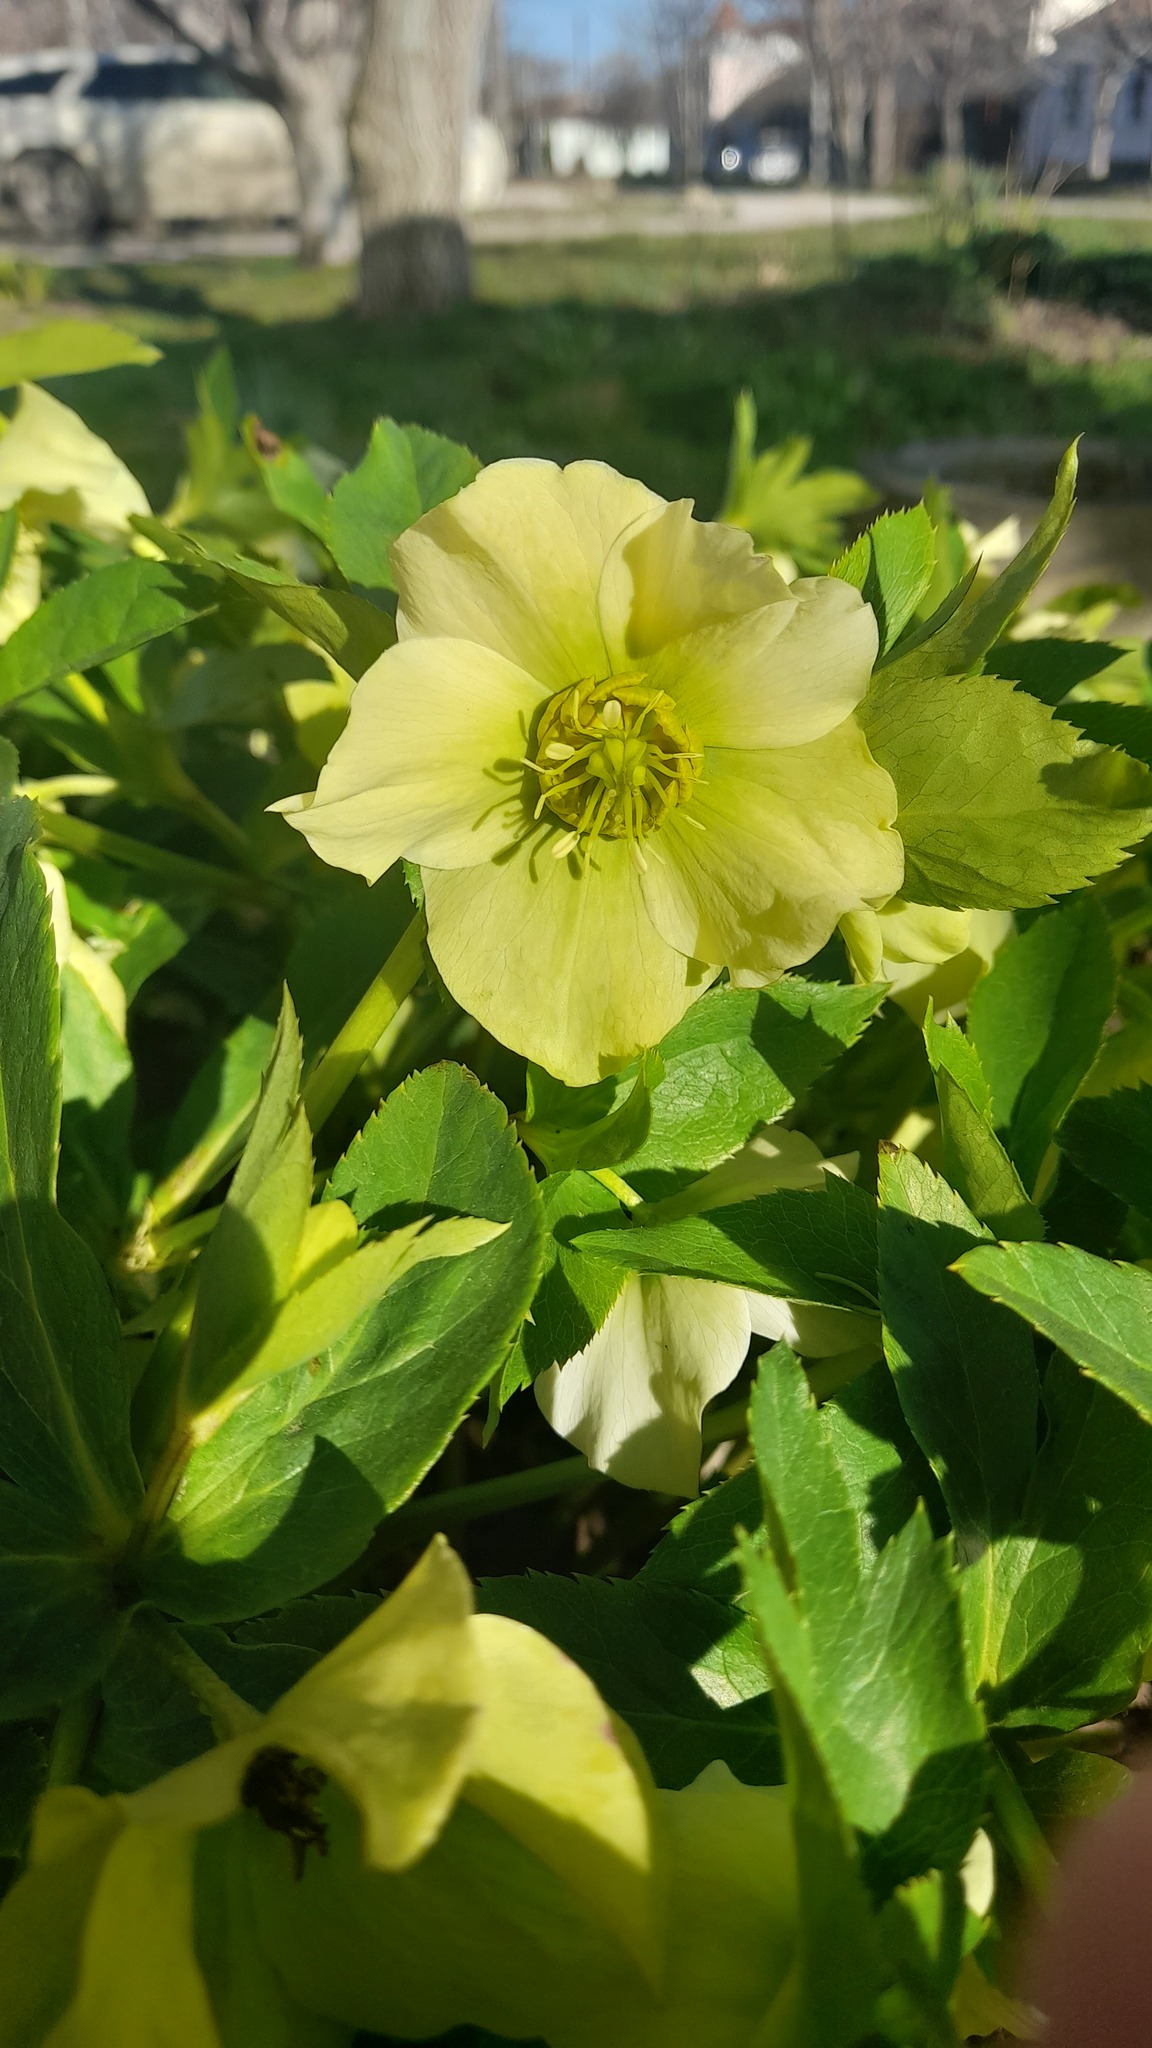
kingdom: Plantae
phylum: Tracheophyta
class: Magnoliopsida
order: Ranunculales
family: Ranunculaceae
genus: Helleborus
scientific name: Helleborus orientalis
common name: Lenten-rose
